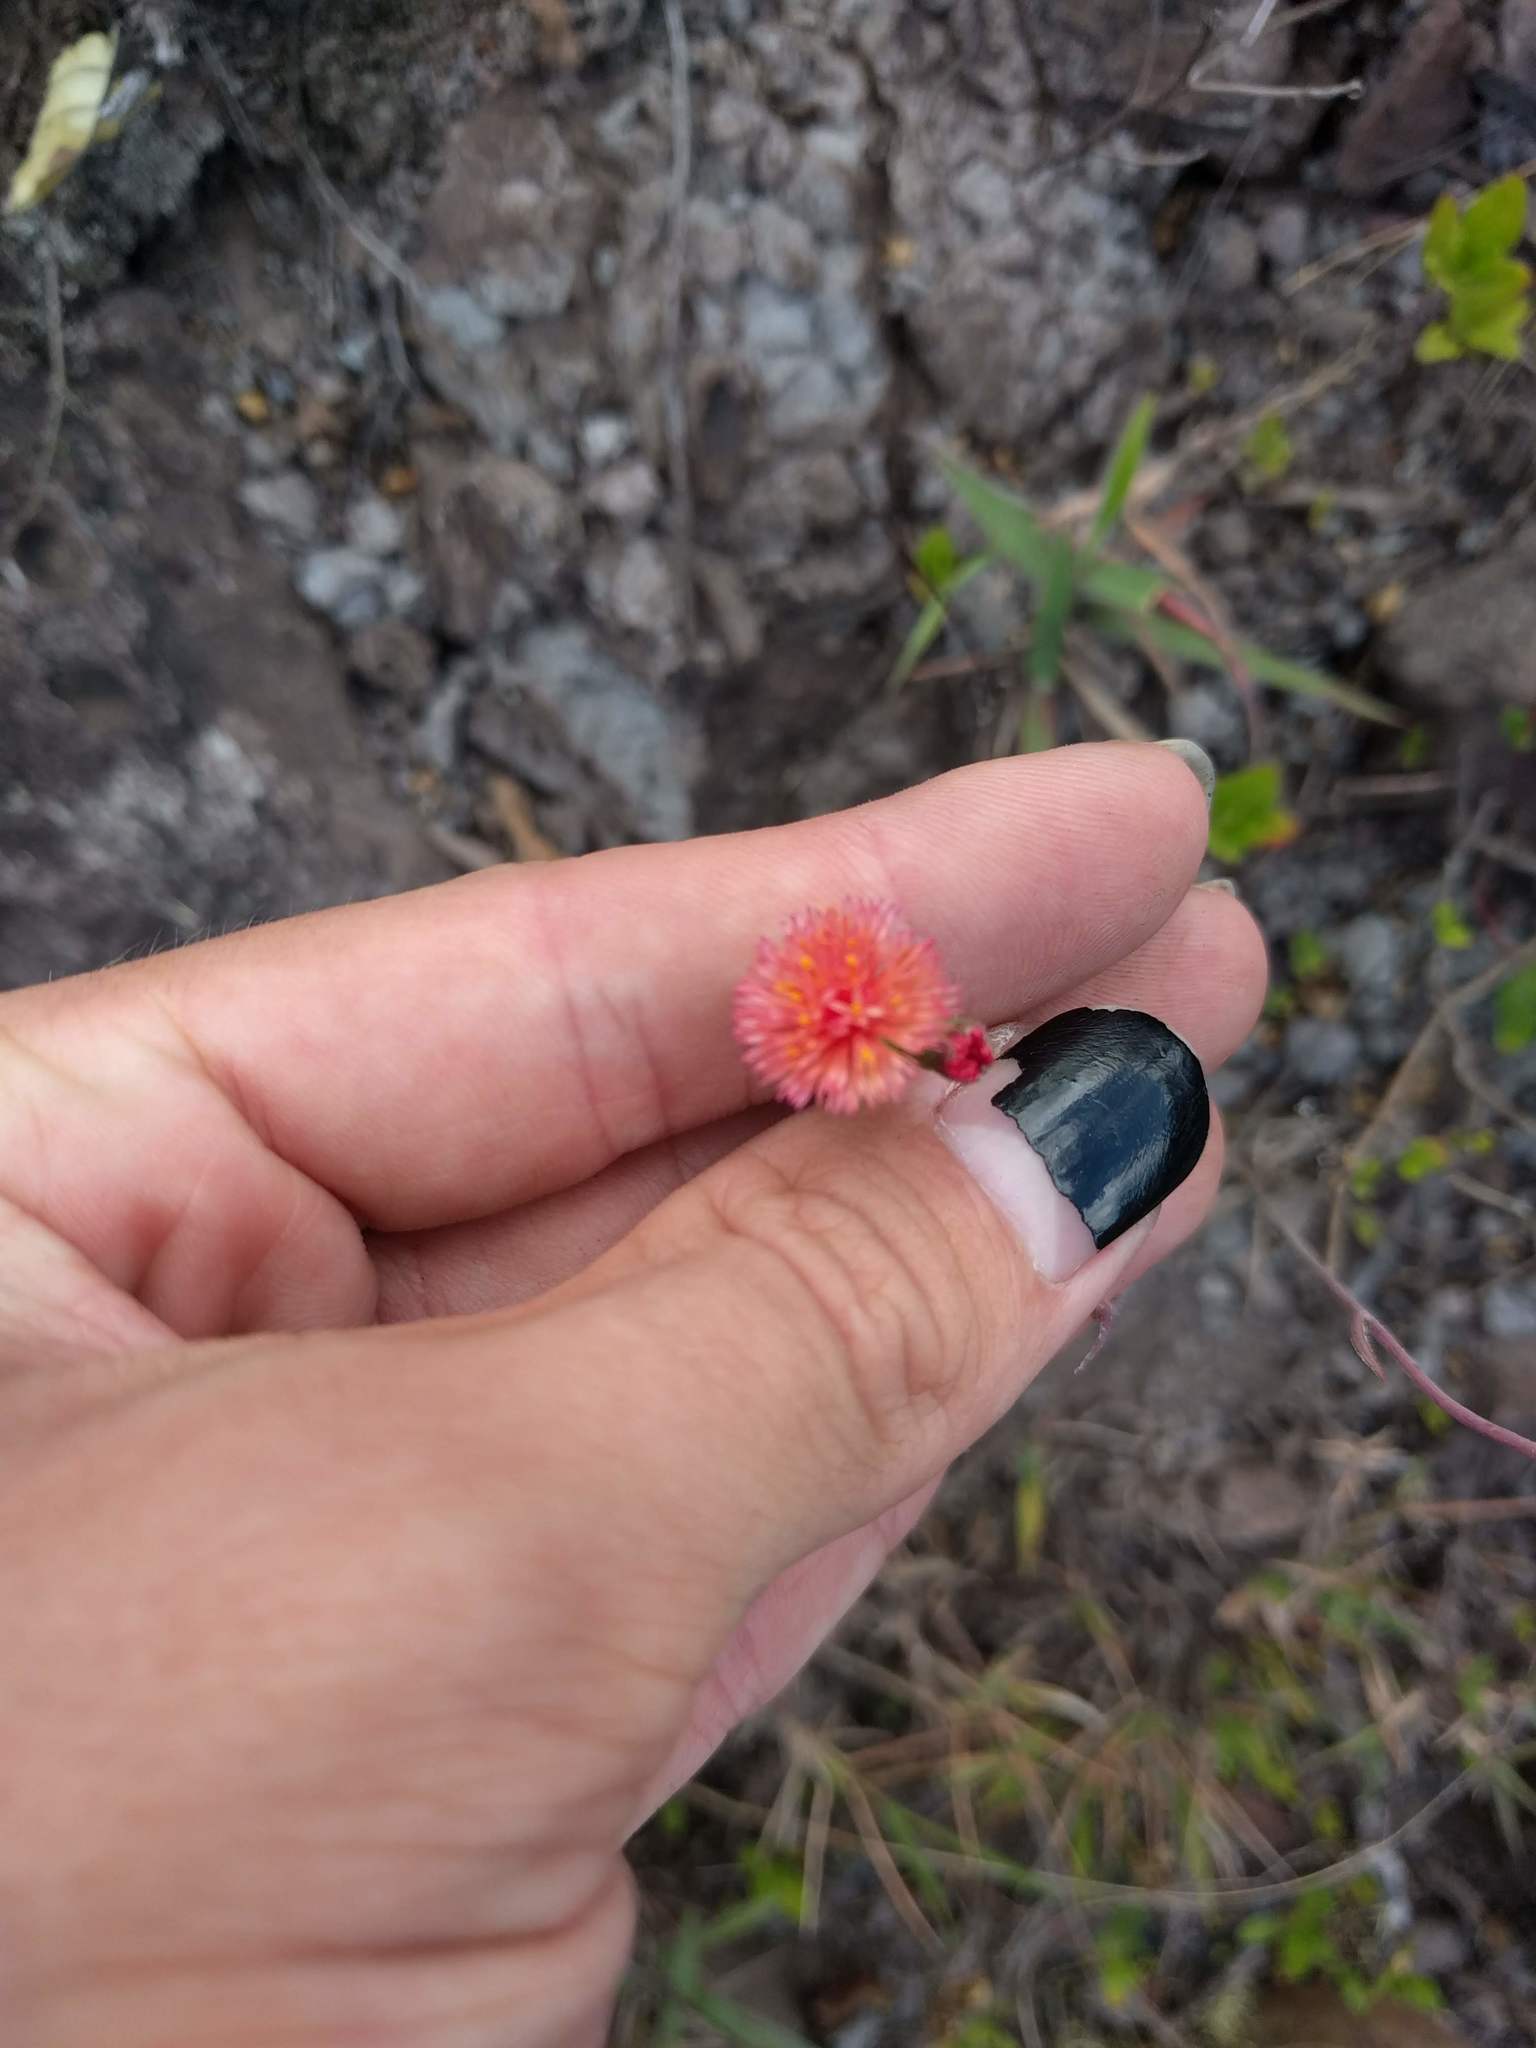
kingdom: Plantae
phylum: Tracheophyta
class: Magnoliopsida
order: Asterales
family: Asteraceae
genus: Emilia
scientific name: Emilia fosbergii
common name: Florida tasselflower
